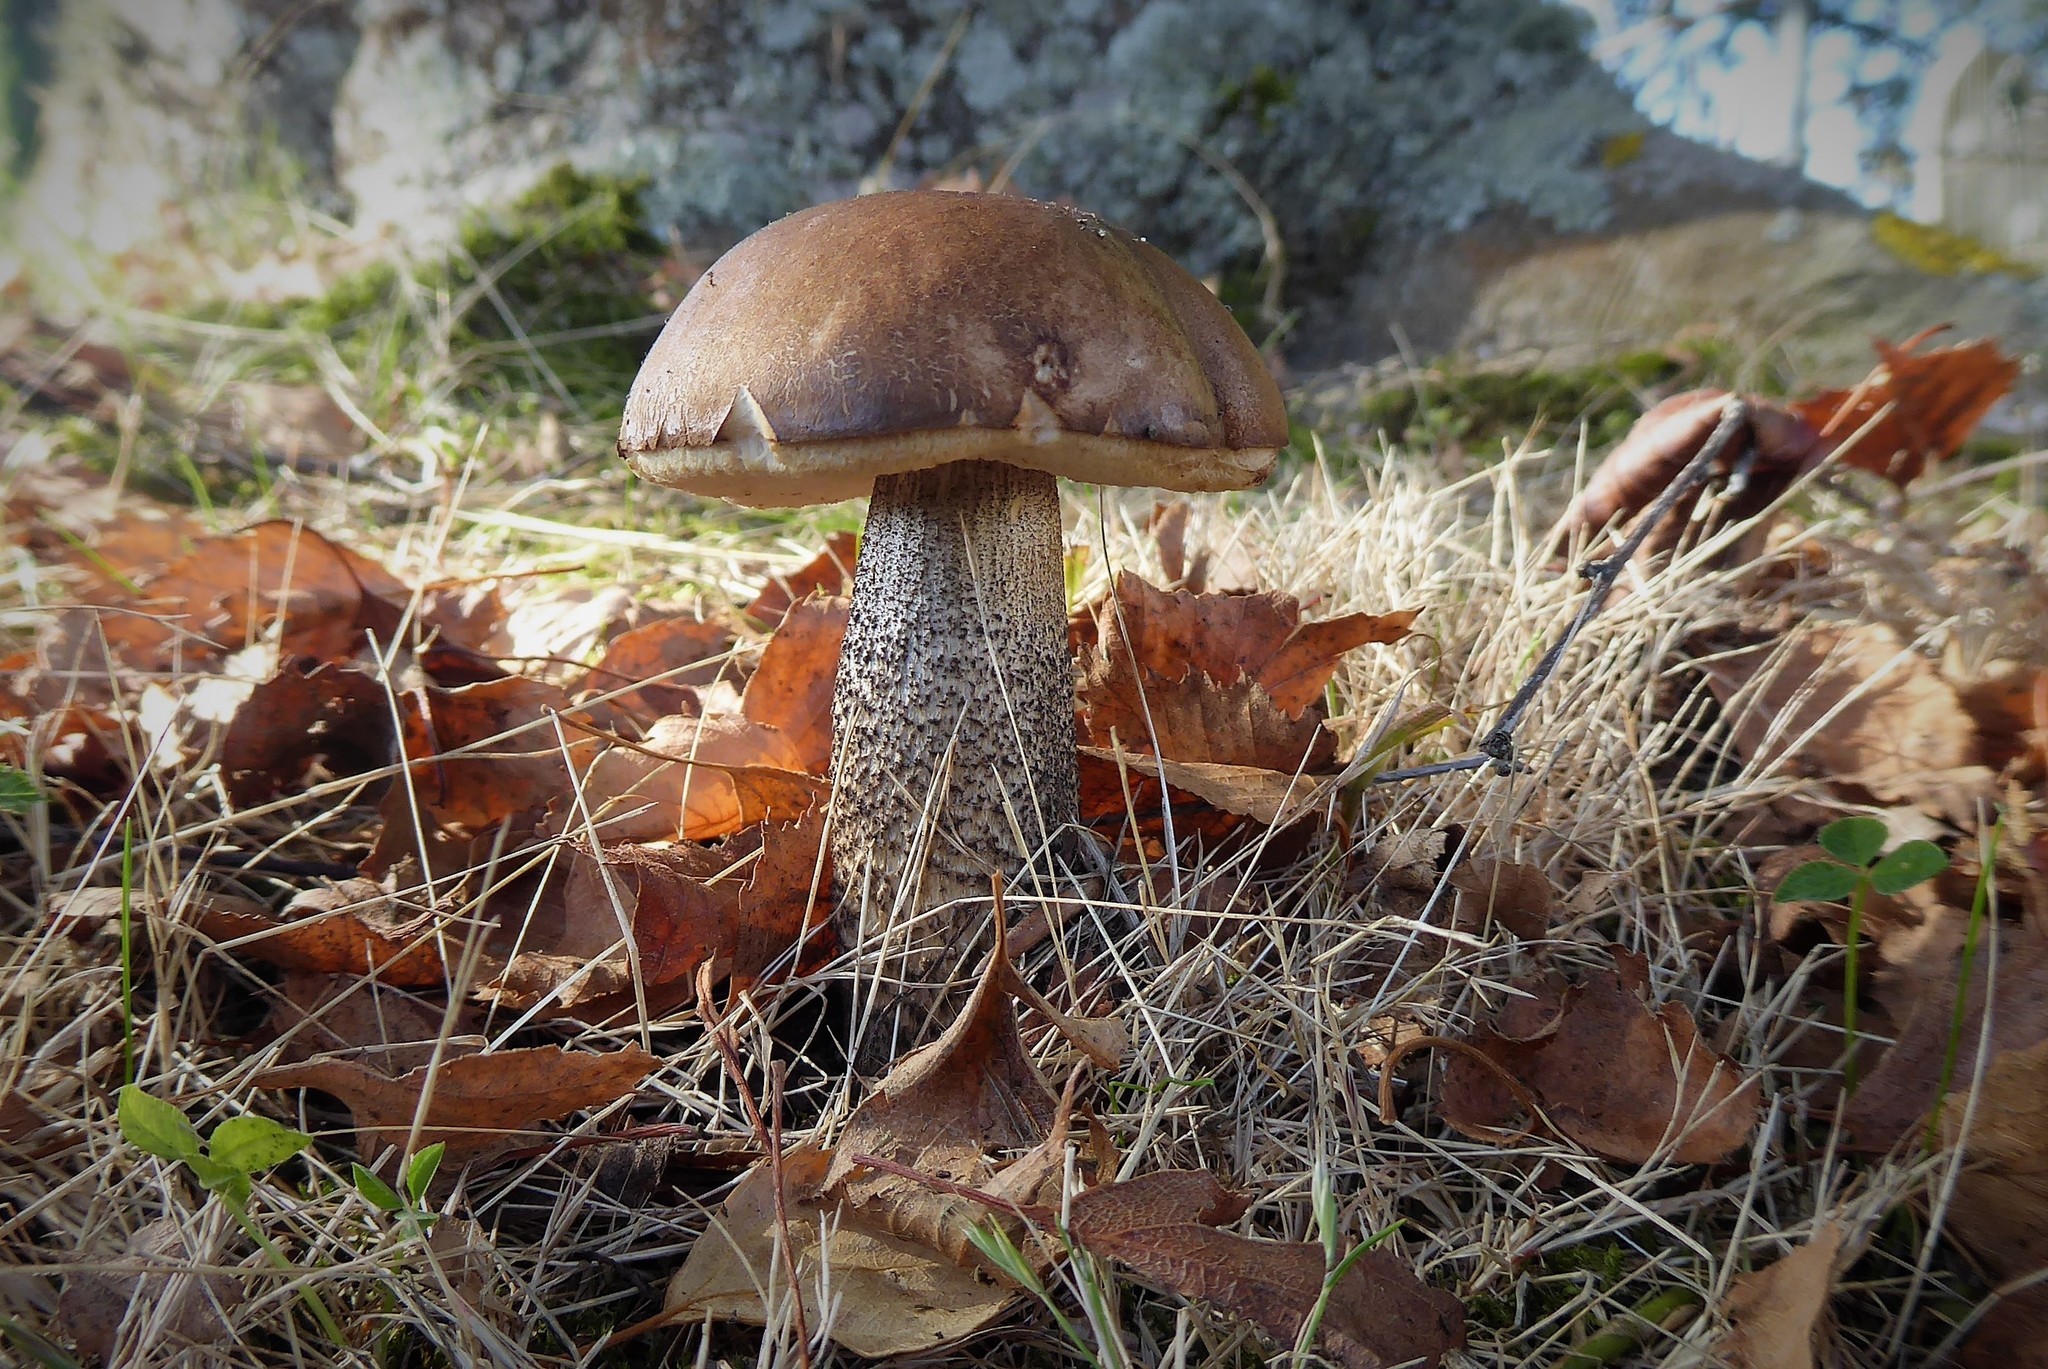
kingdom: Fungi
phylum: Basidiomycota
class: Agaricomycetes
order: Boletales
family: Boletaceae
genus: Leccinum
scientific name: Leccinum scabrum
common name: Blushing bolete
